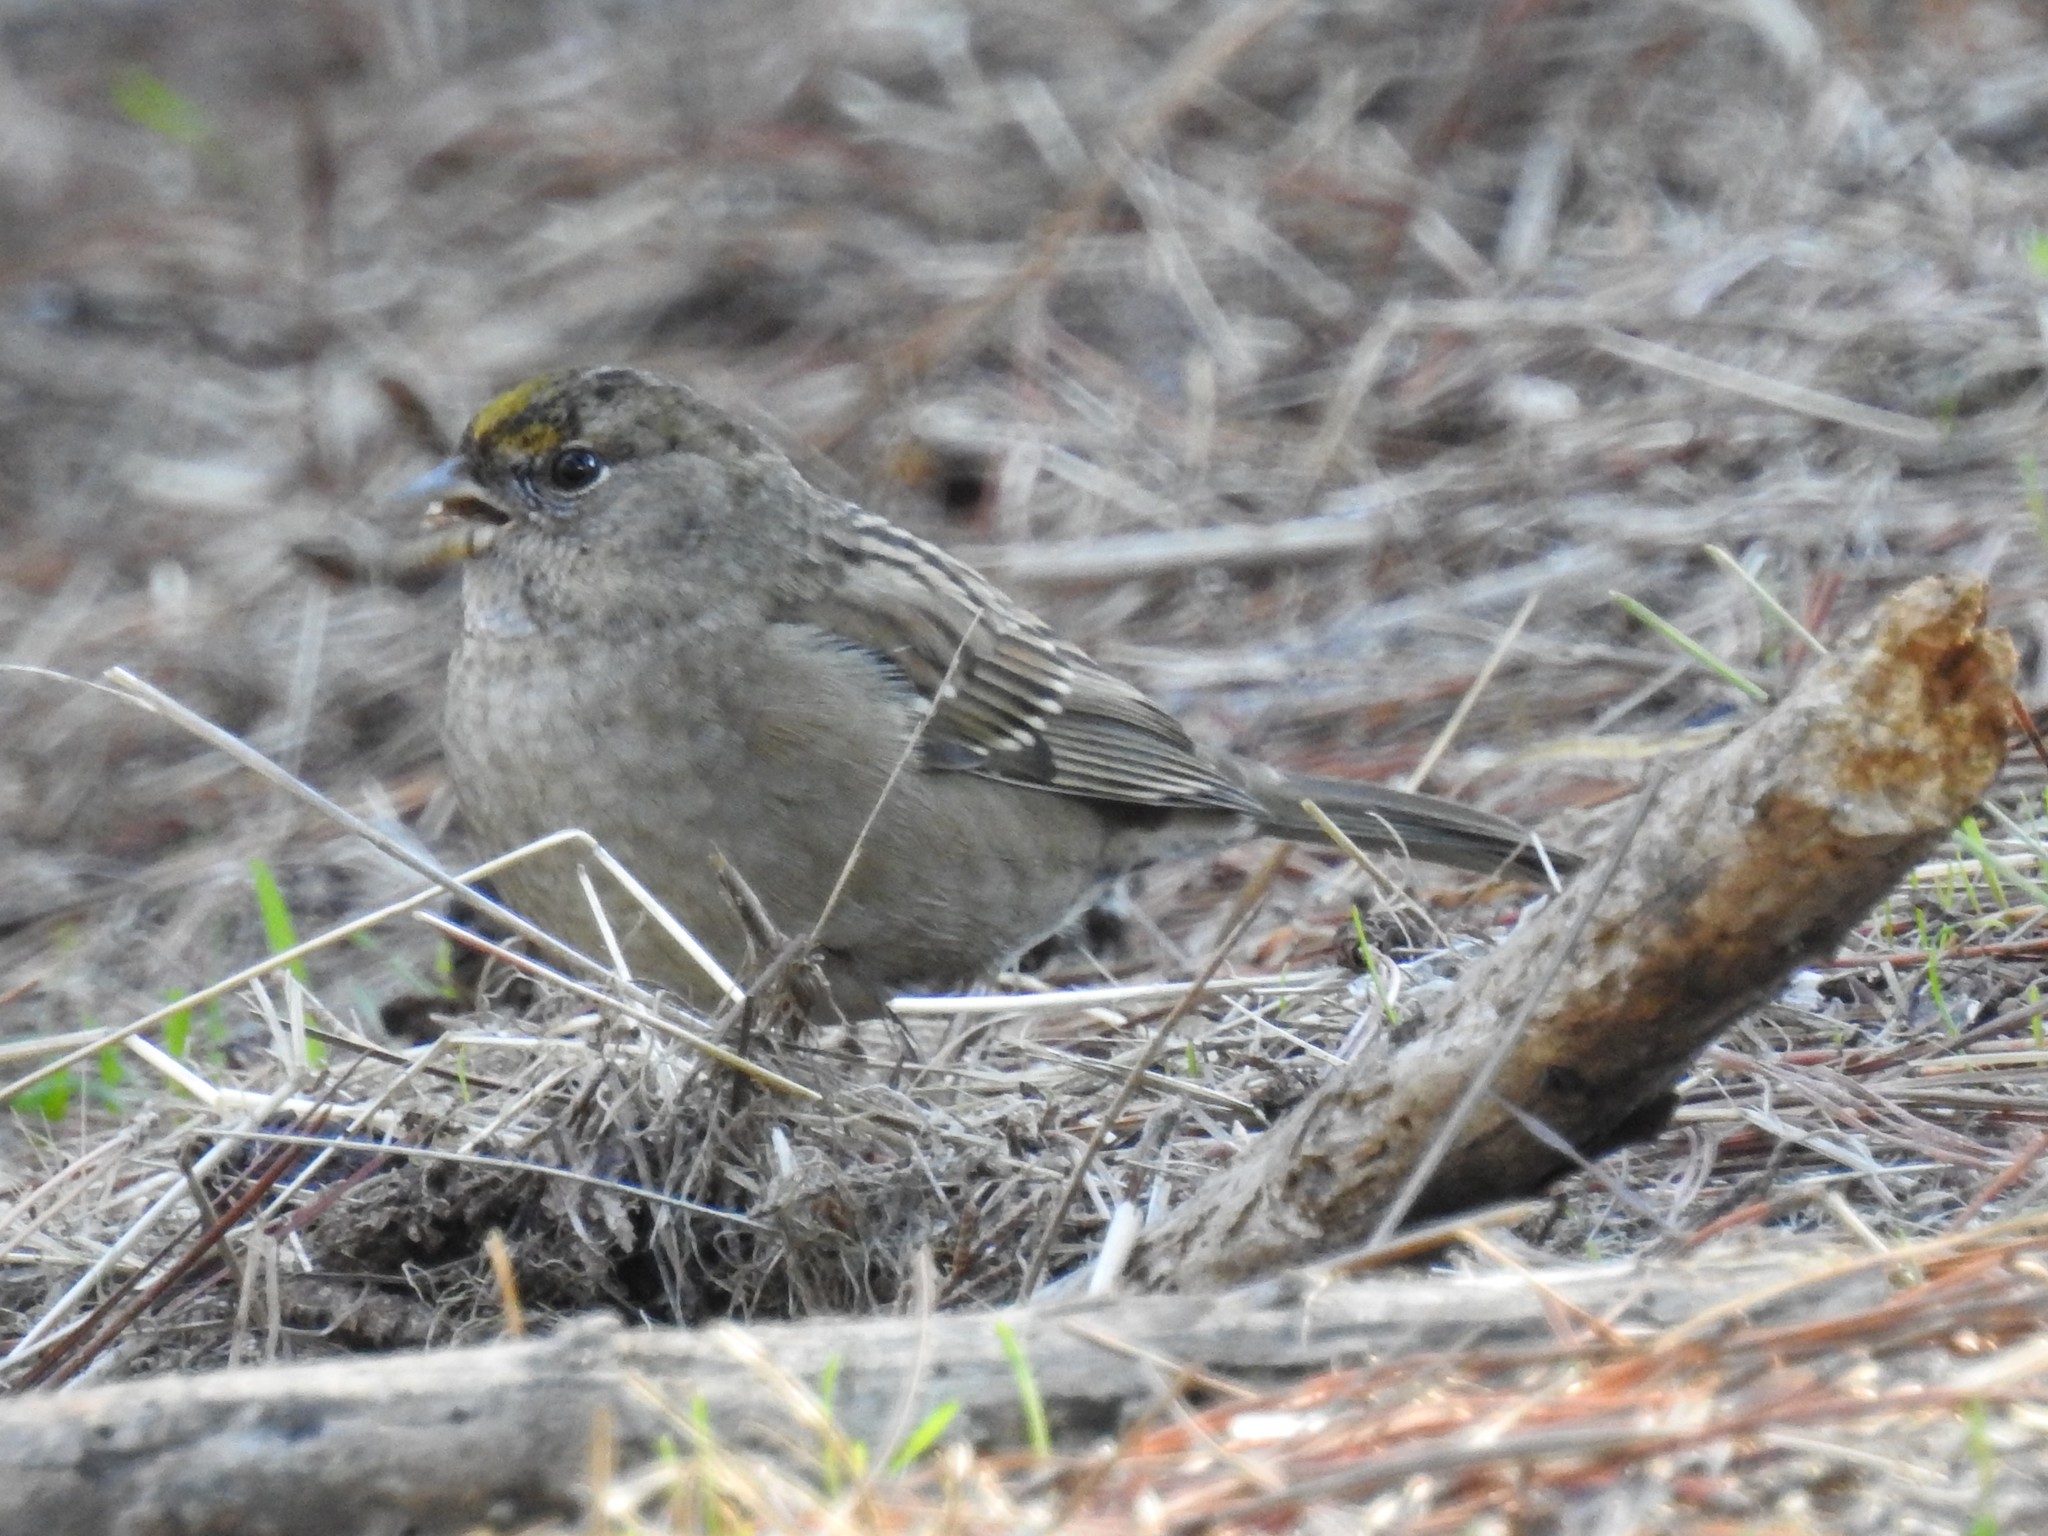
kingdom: Animalia
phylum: Chordata
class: Aves
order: Passeriformes
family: Passerellidae
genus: Zonotrichia
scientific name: Zonotrichia atricapilla
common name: Golden-crowned sparrow
